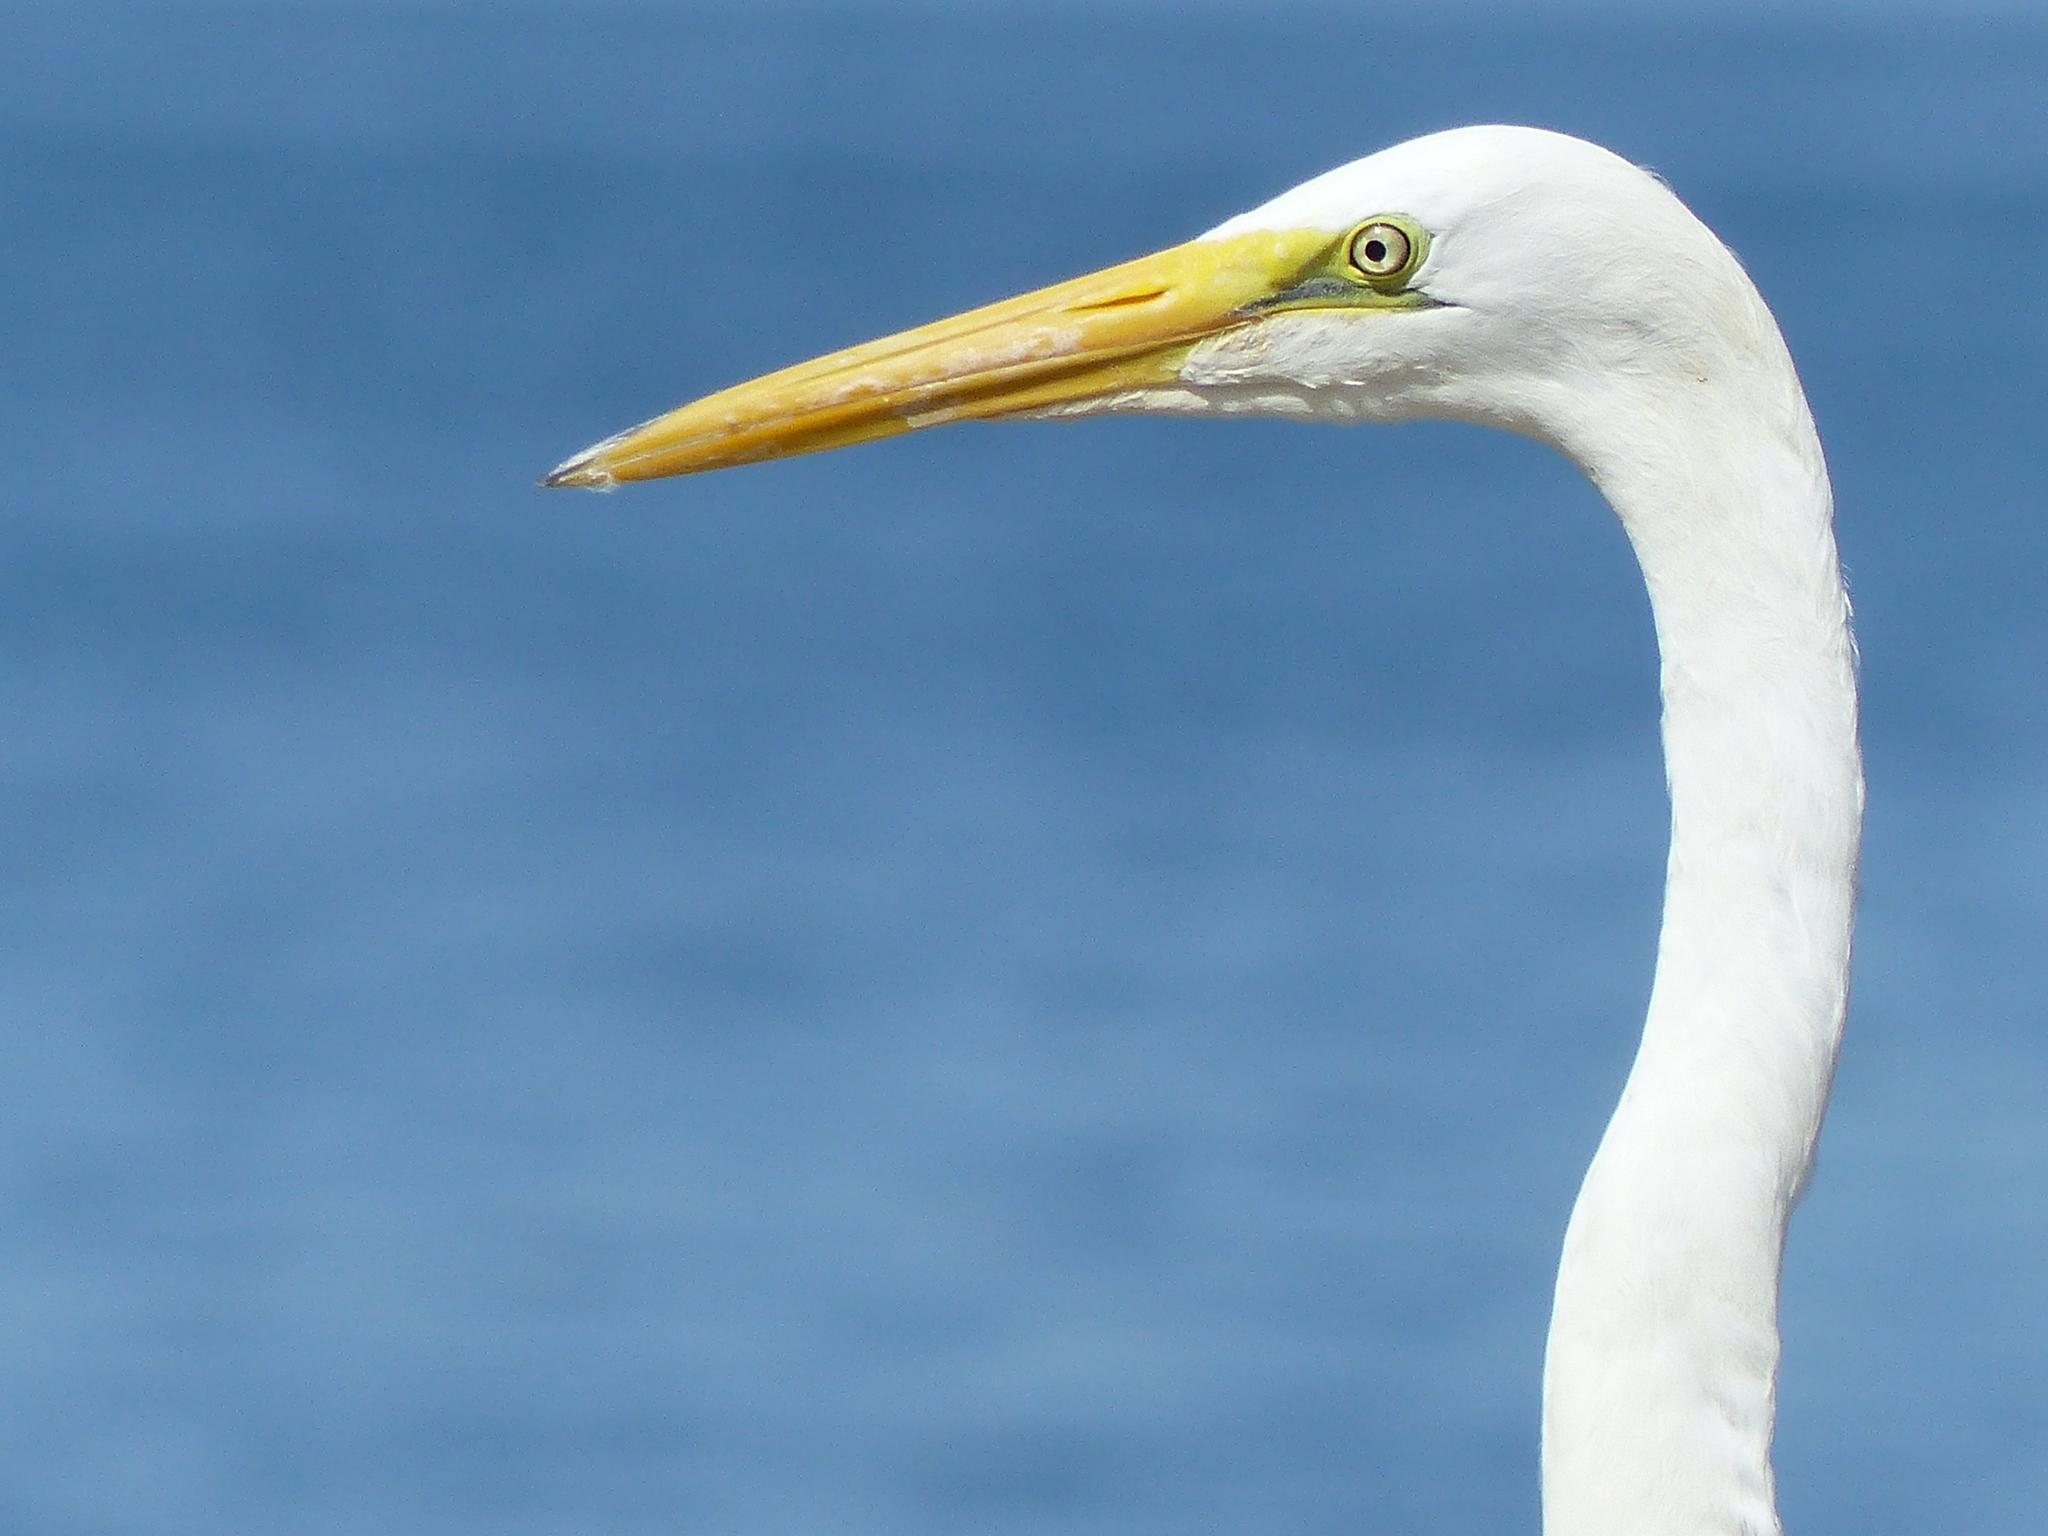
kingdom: Animalia
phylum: Chordata
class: Aves
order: Pelecaniformes
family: Ardeidae
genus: Ardea
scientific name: Ardea alba
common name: Great egret
